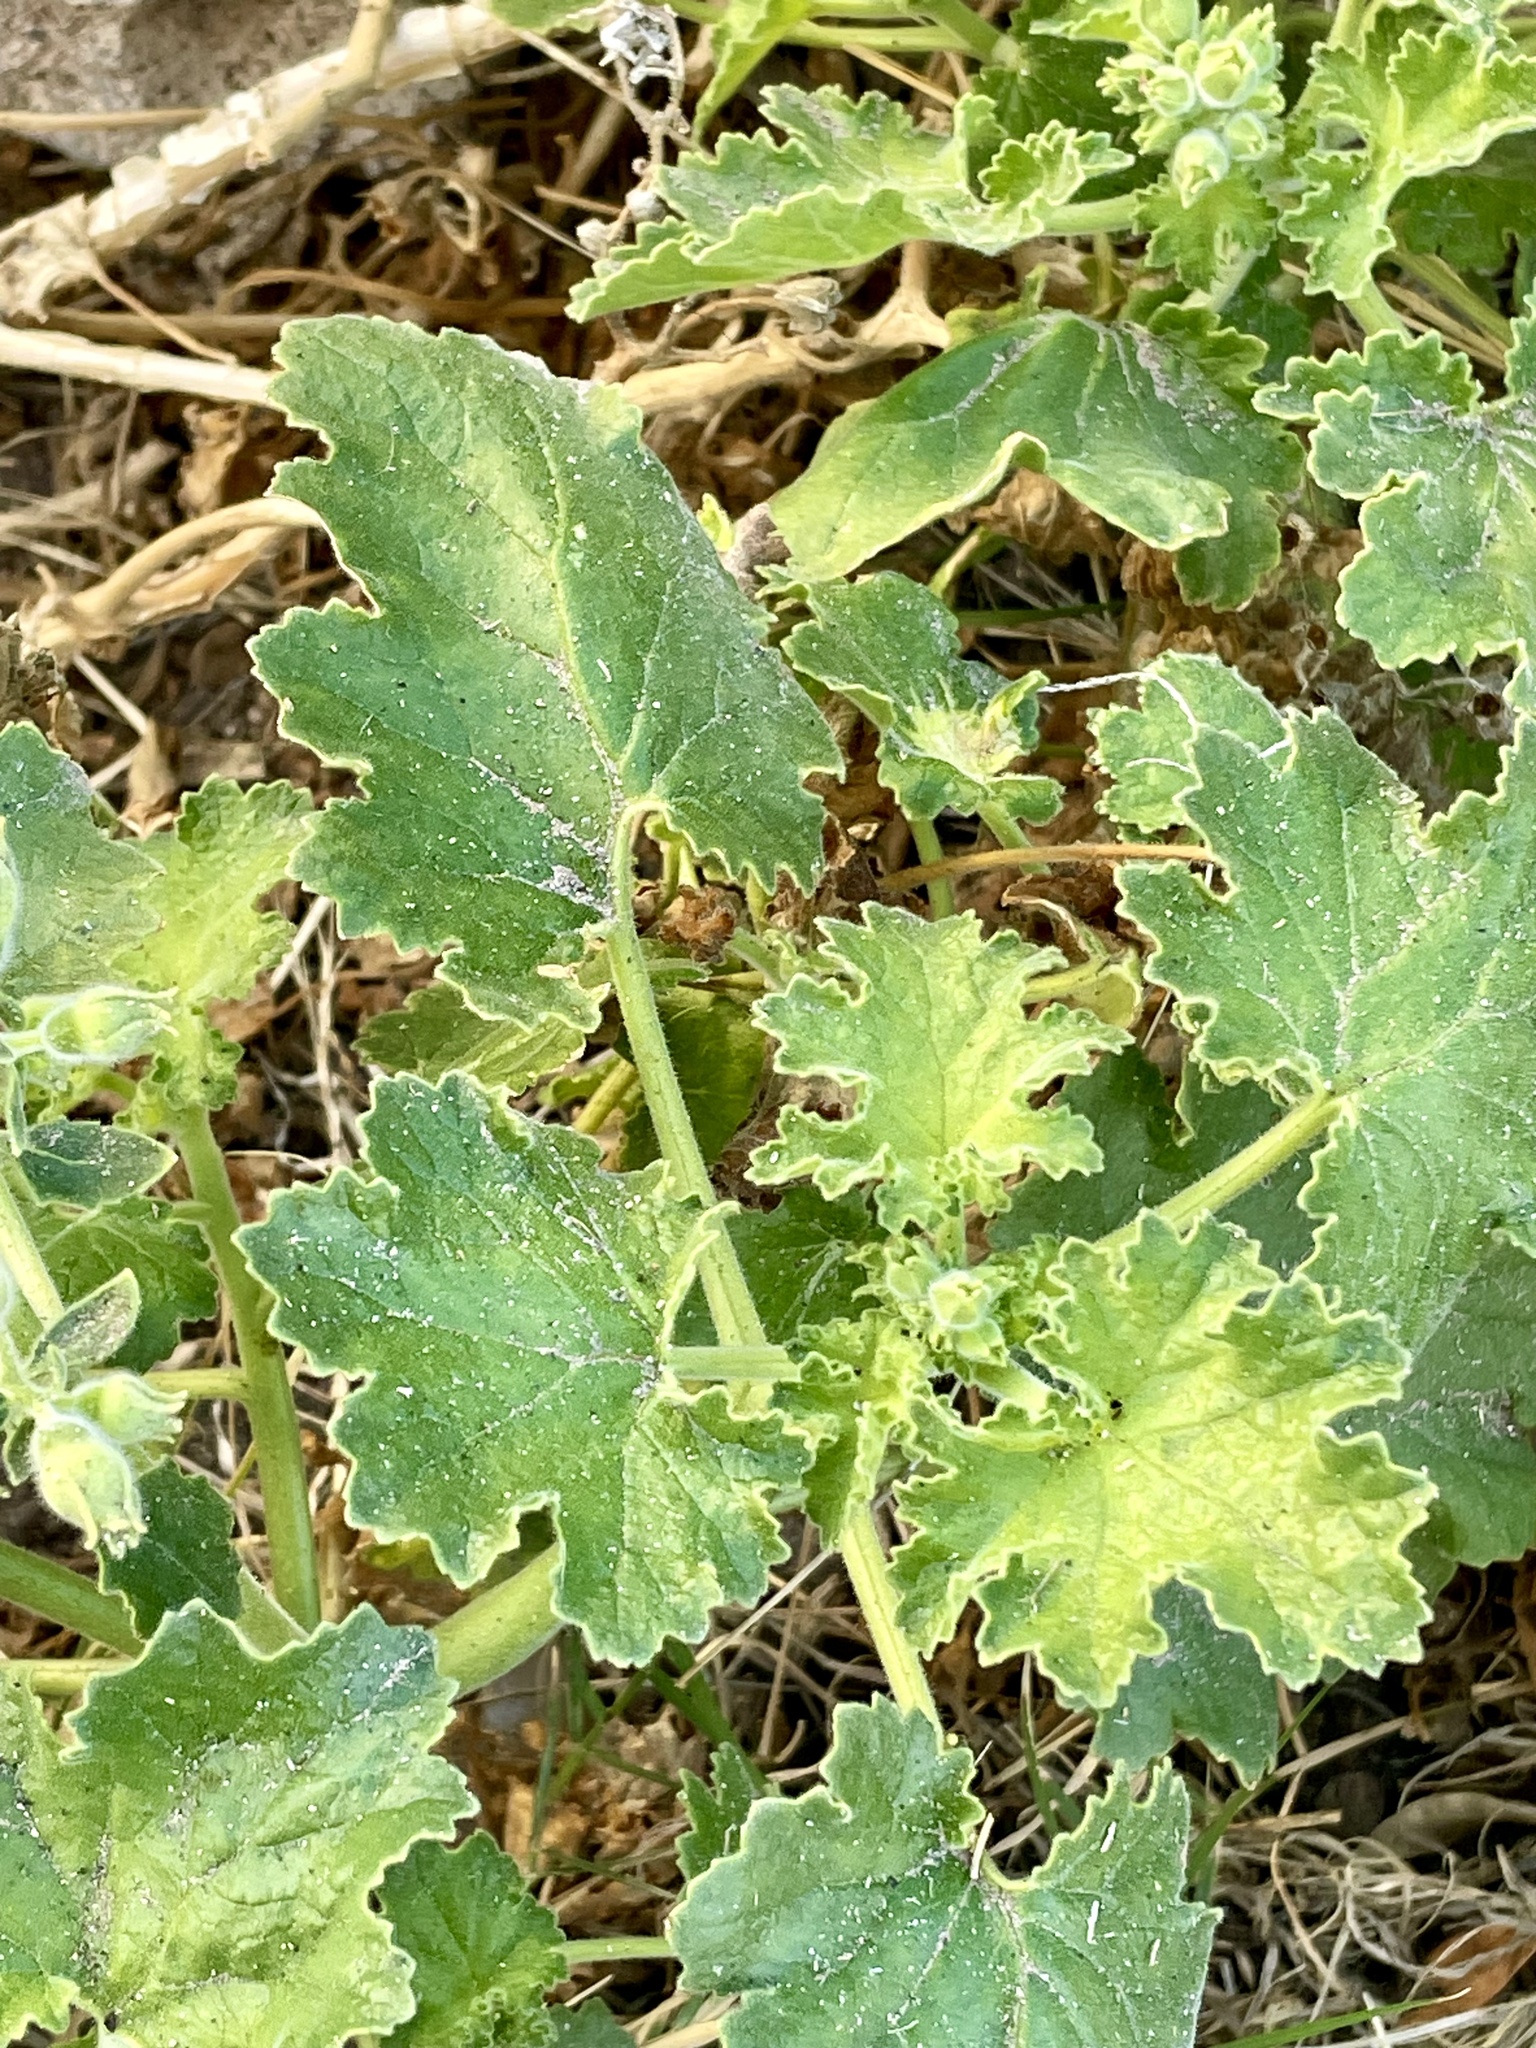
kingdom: Plantae
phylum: Tracheophyta
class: Magnoliopsida
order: Cornales
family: Loasaceae
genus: Eucnide
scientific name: Eucnide cordata
